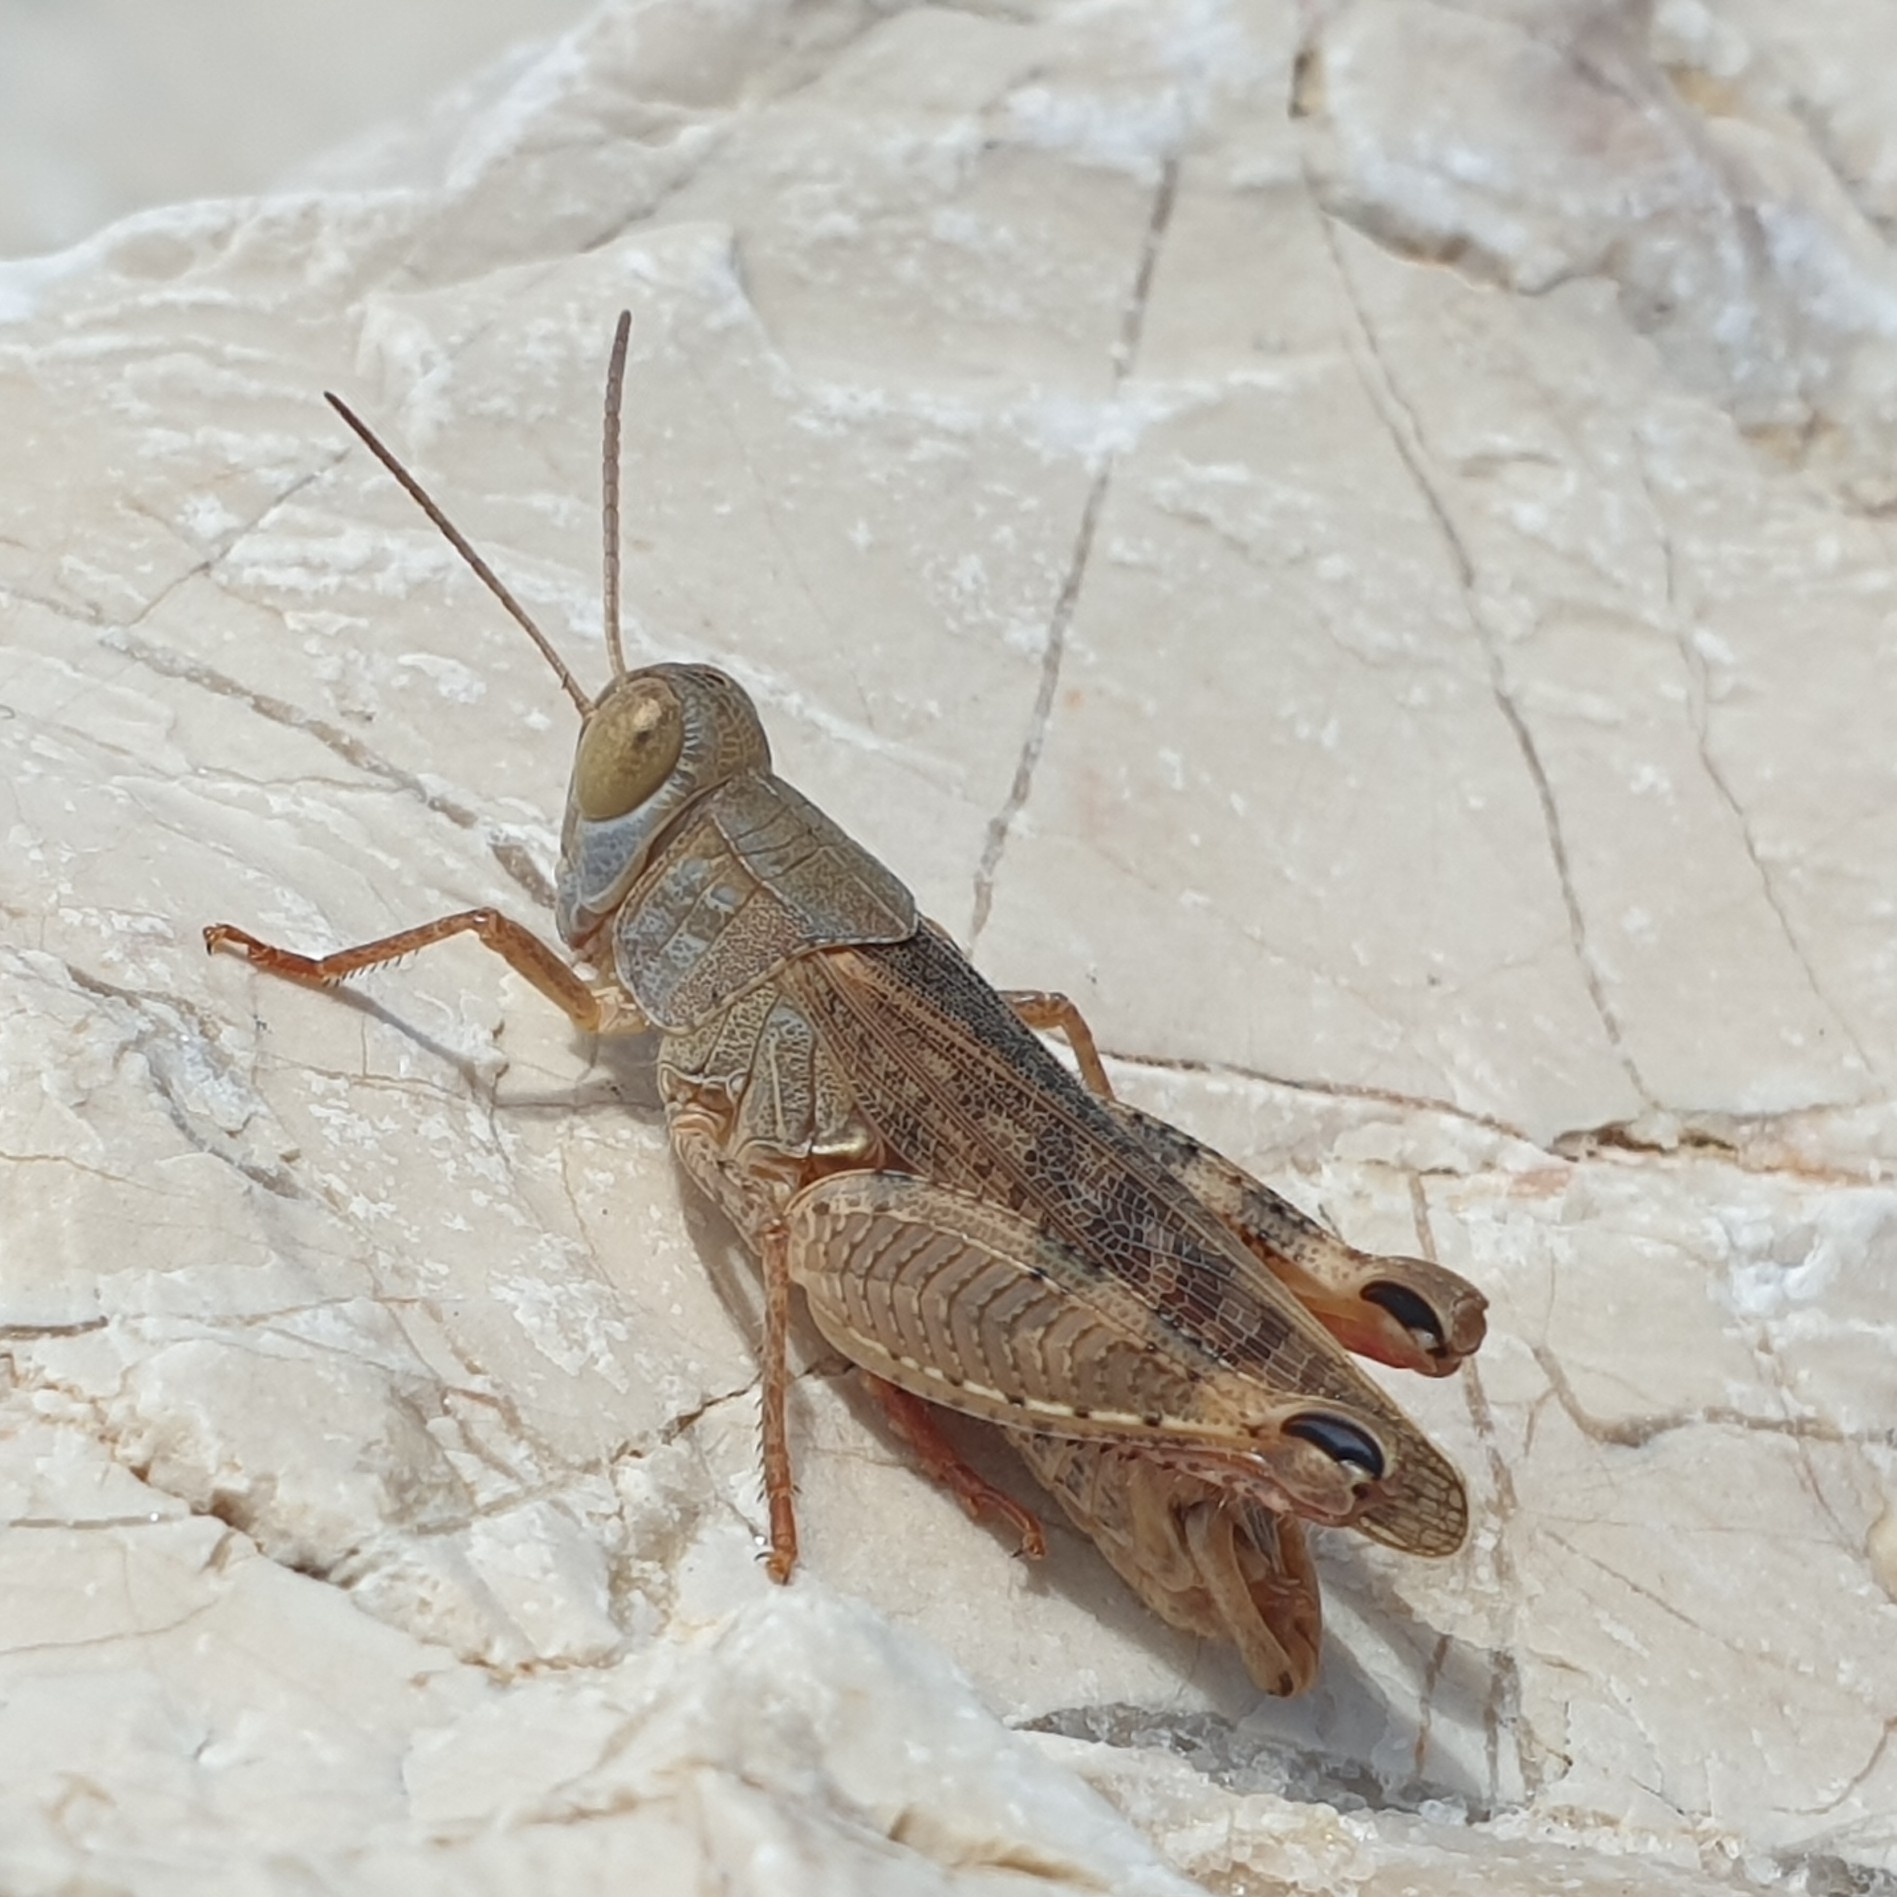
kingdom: Animalia
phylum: Arthropoda
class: Insecta
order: Orthoptera
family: Acrididae
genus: Calliptamus
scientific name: Calliptamus italicus
